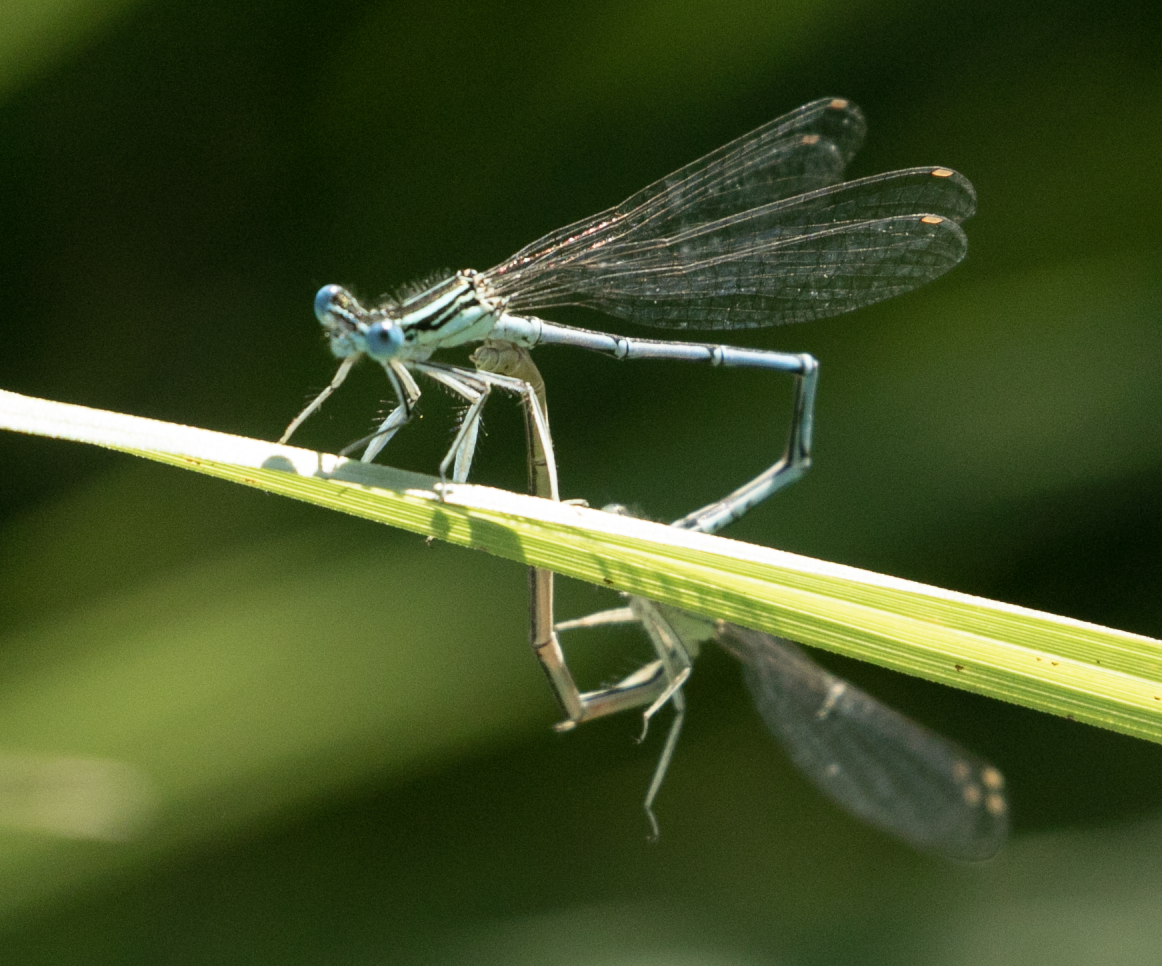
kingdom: Animalia
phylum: Arthropoda
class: Insecta
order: Odonata
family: Platycnemididae
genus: Platycnemis
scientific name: Platycnemis pennipes
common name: White-legged damselfly
